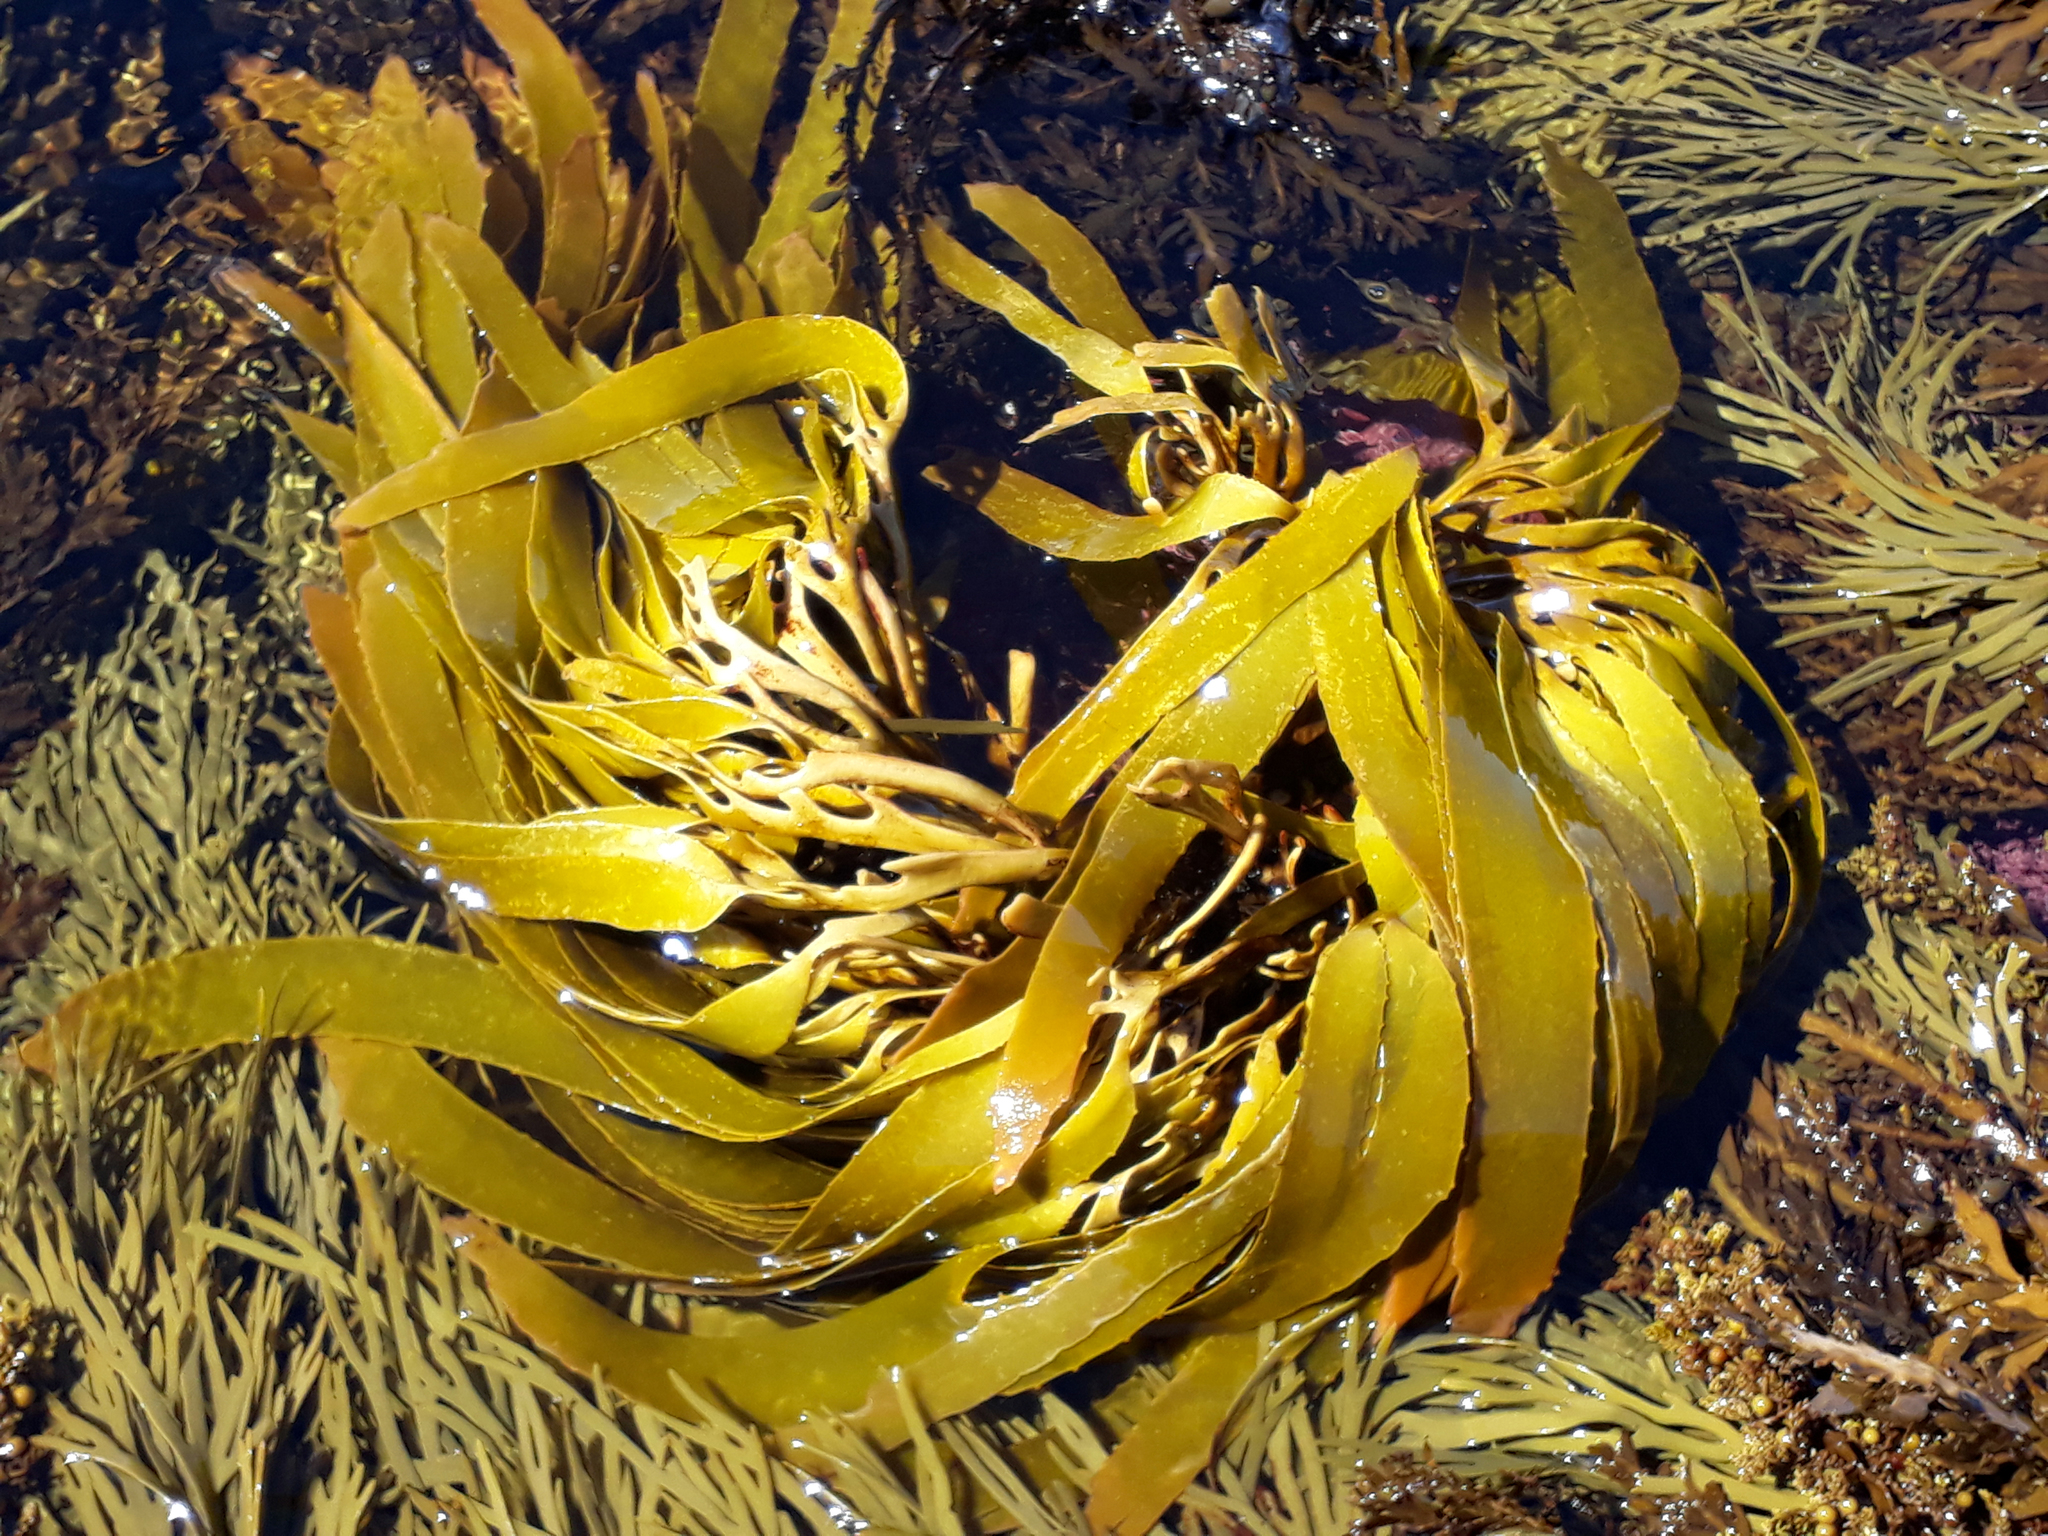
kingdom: Chromista
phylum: Ochrophyta
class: Phaeophyceae
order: Laminariales
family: Lessoniaceae
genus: Lessonia
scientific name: Lessonia tholiformis
